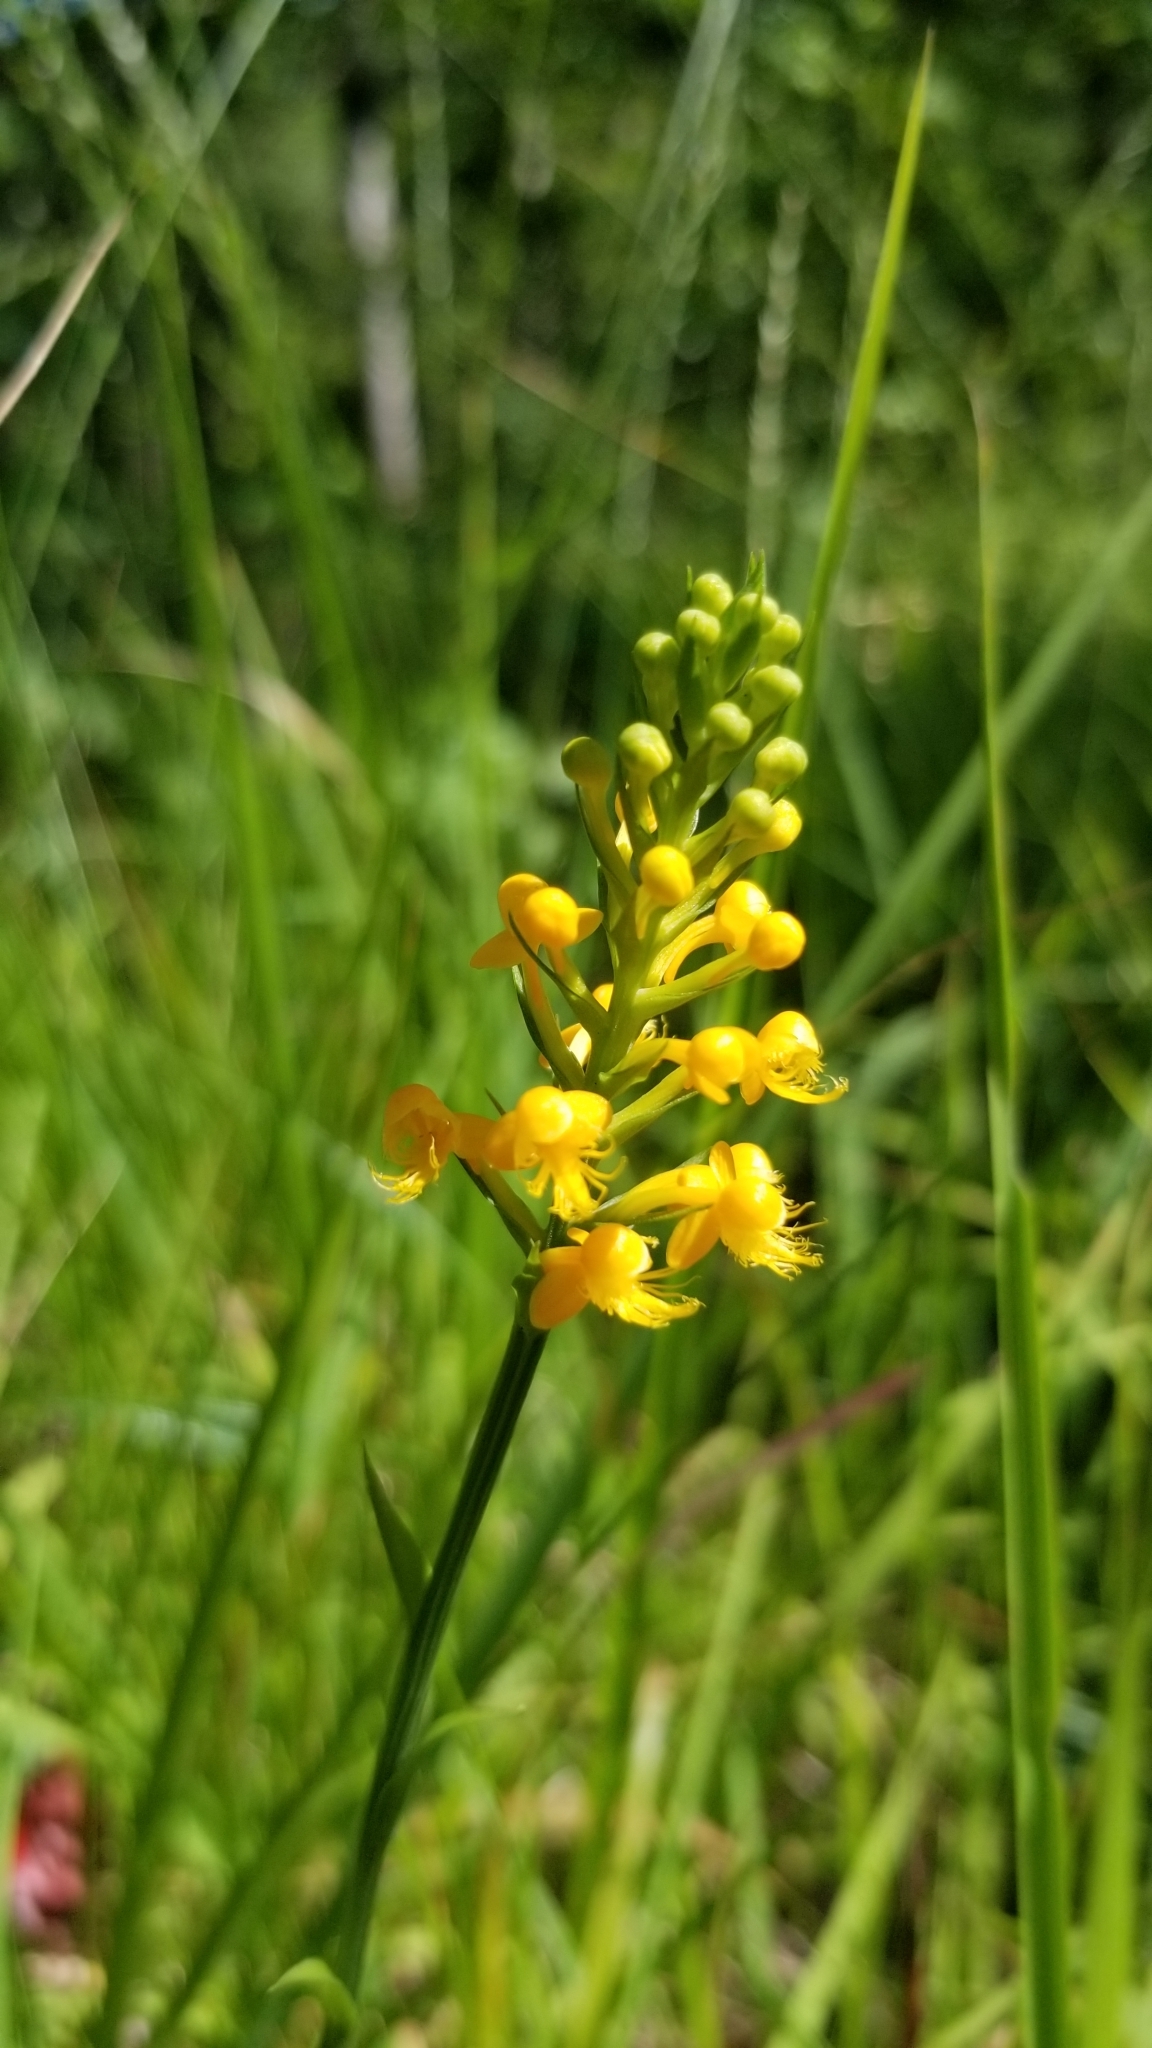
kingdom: Plantae
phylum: Tracheophyta
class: Liliopsida
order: Asparagales
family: Orchidaceae
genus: Platanthera
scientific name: Platanthera cristata
